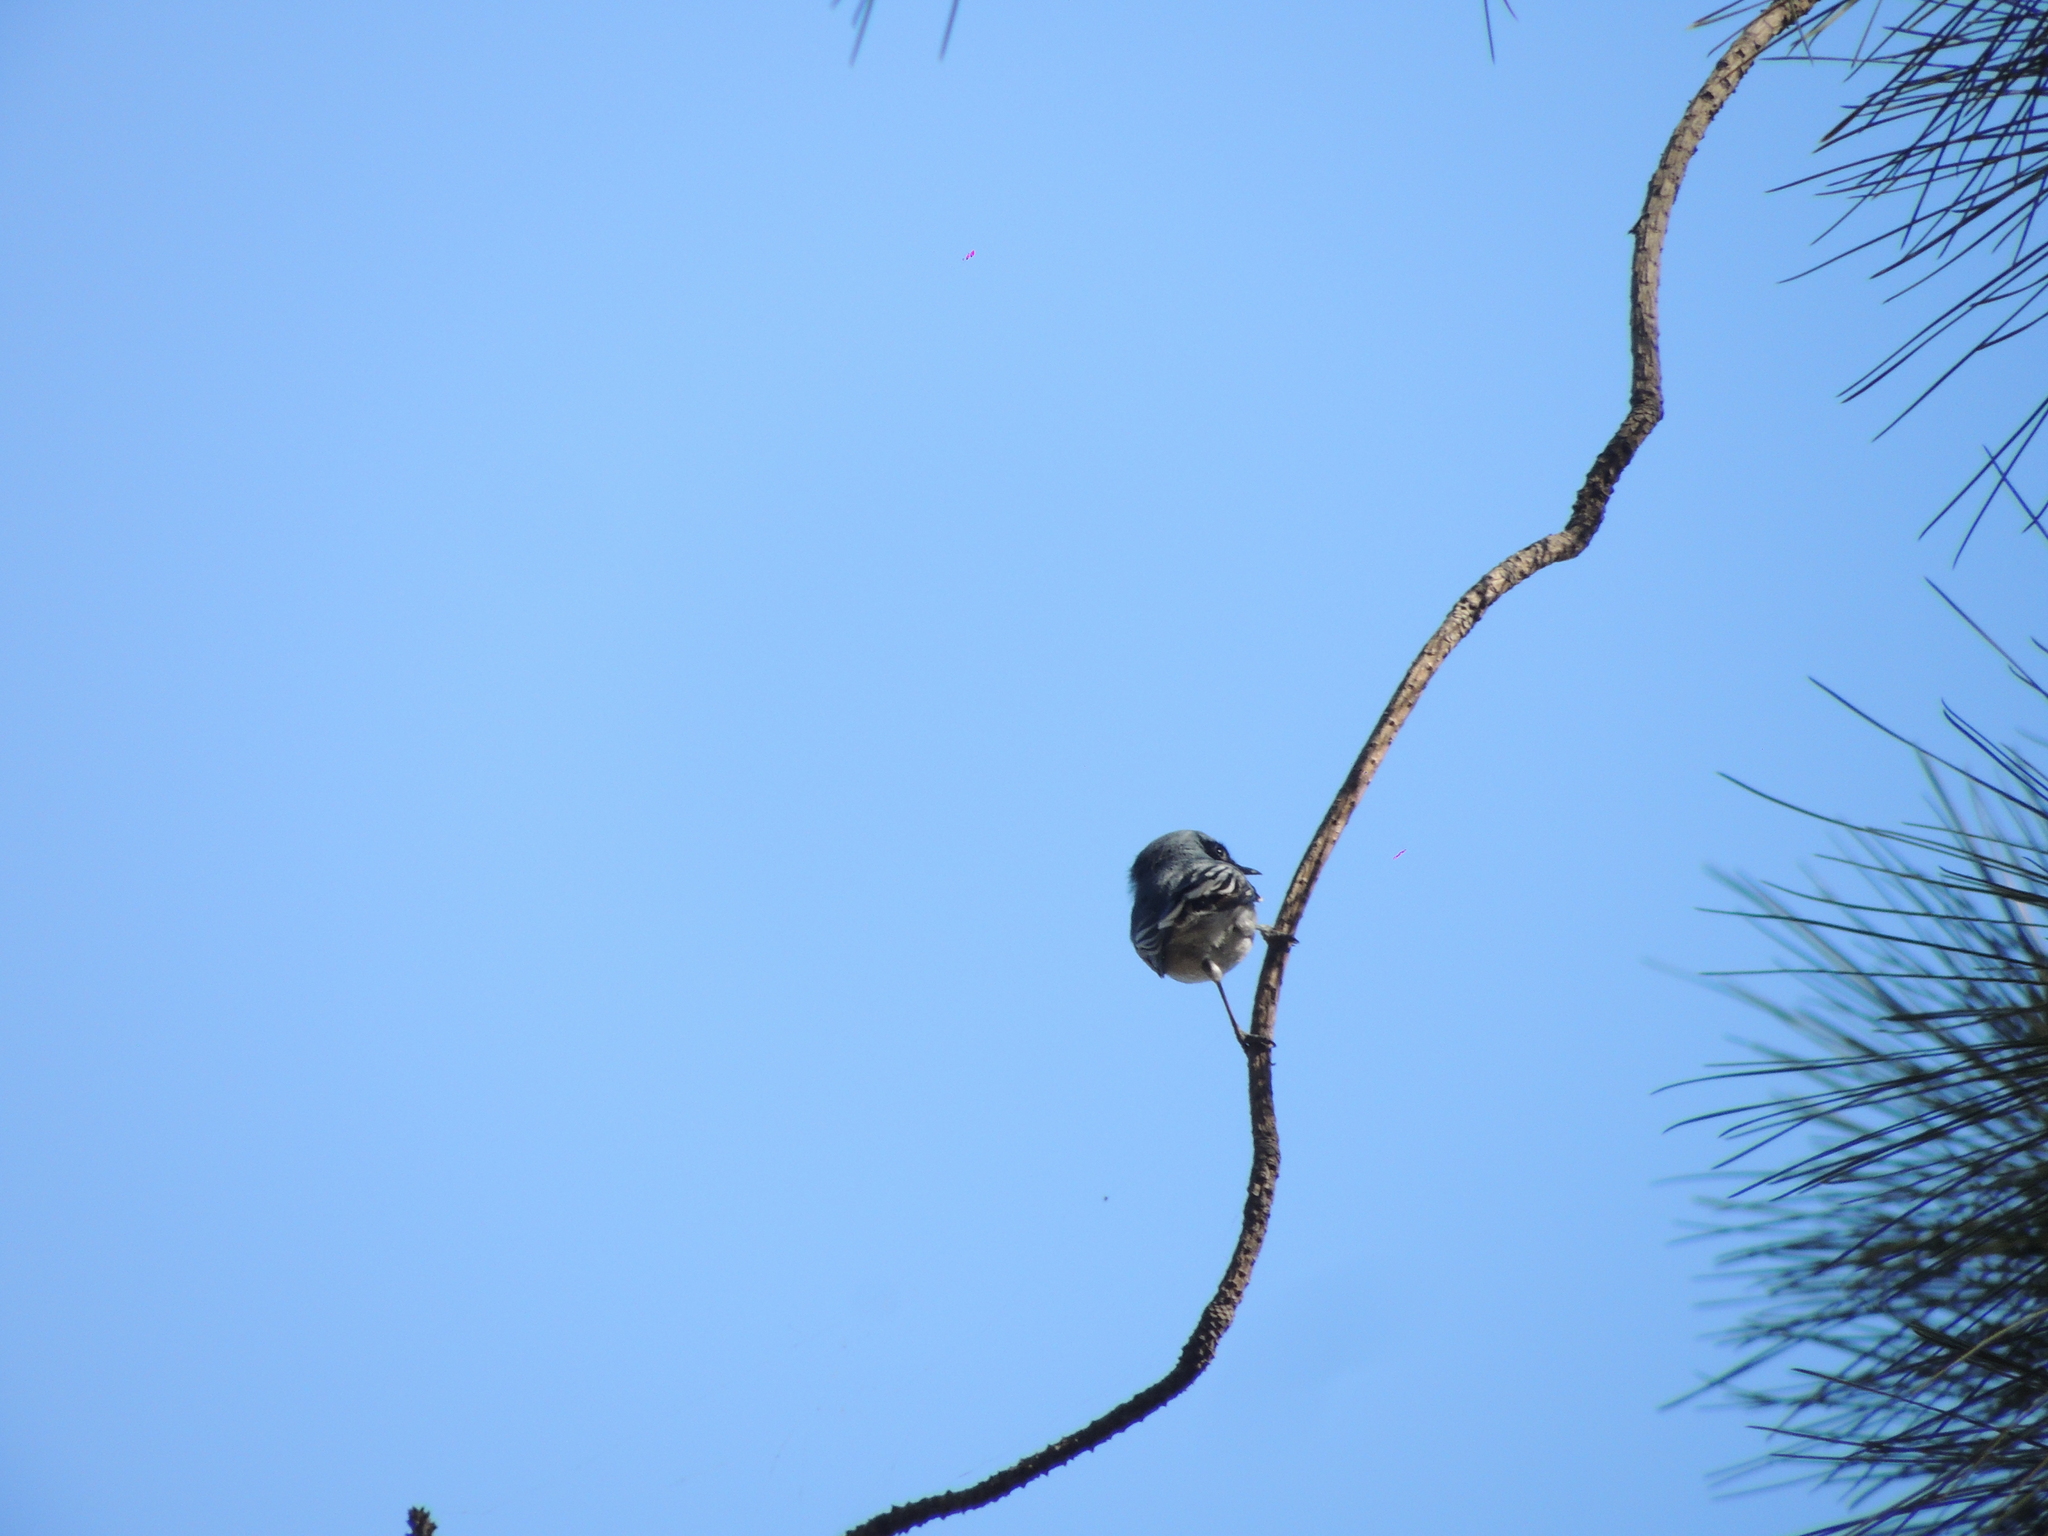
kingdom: Animalia
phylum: Chordata
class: Aves
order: Passeriformes
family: Polioptilidae
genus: Polioptila
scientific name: Polioptila dumicola
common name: Masked gnatcatcher
